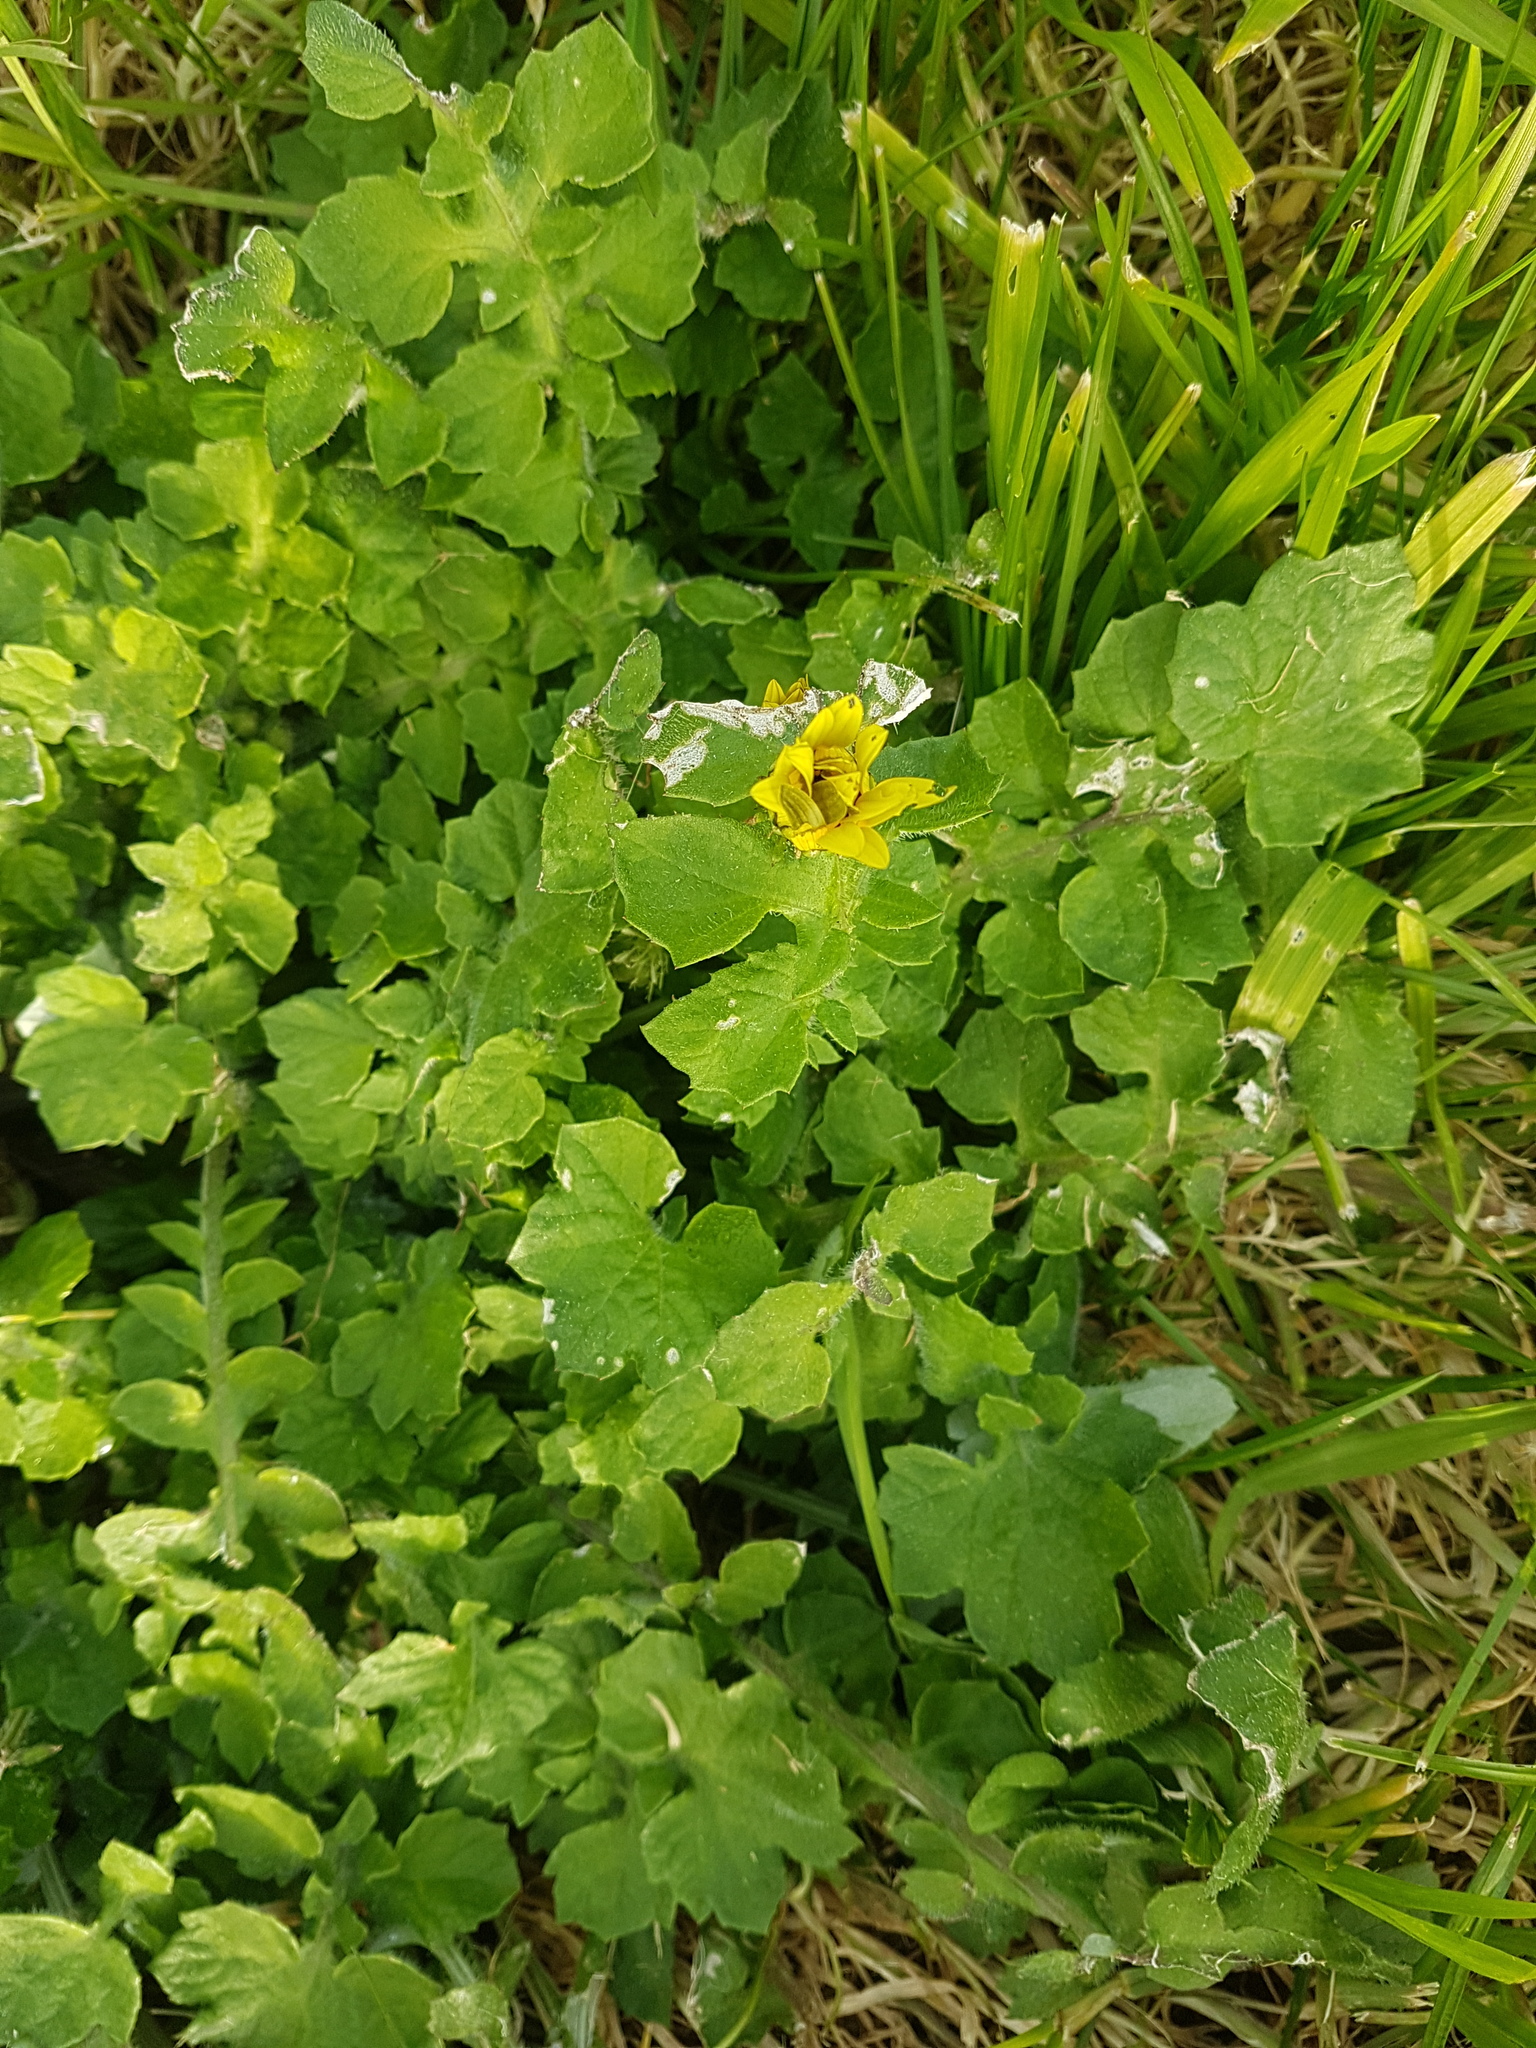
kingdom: Plantae
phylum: Tracheophyta
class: Magnoliopsida
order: Asterales
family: Asteraceae
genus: Arctotheca
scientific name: Arctotheca calendula
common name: Capeweed
